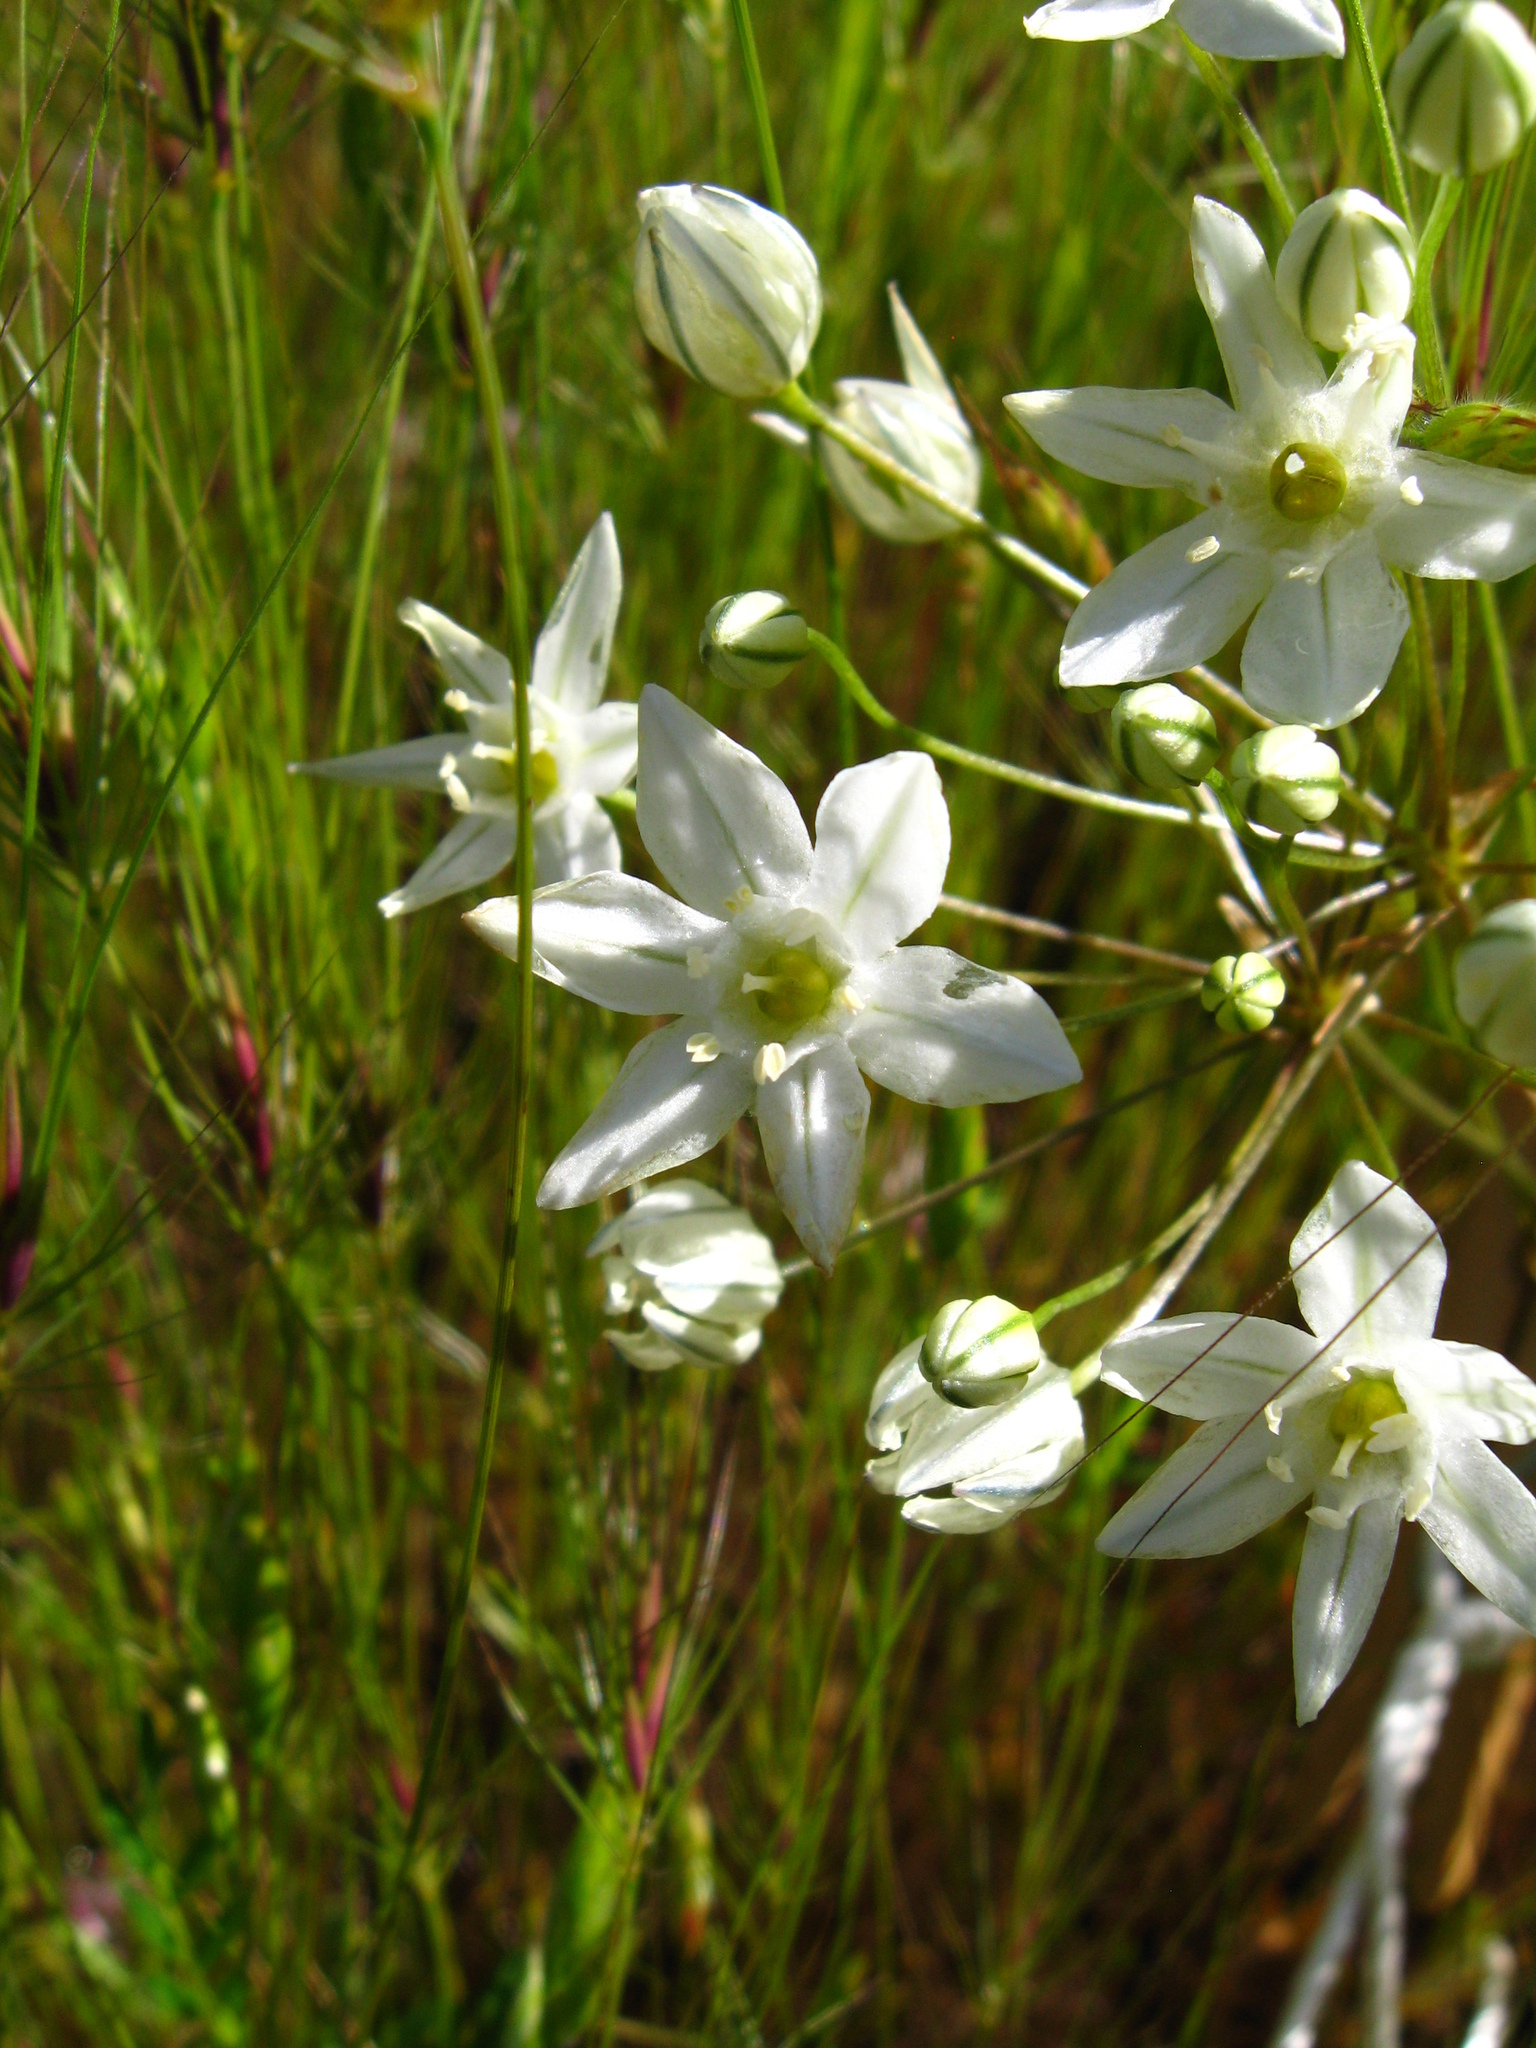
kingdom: Plantae
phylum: Tracheophyta
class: Liliopsida
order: Asparagales
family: Asparagaceae
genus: Triteleia
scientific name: Triteleia hyacinthina
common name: White brodiaea
